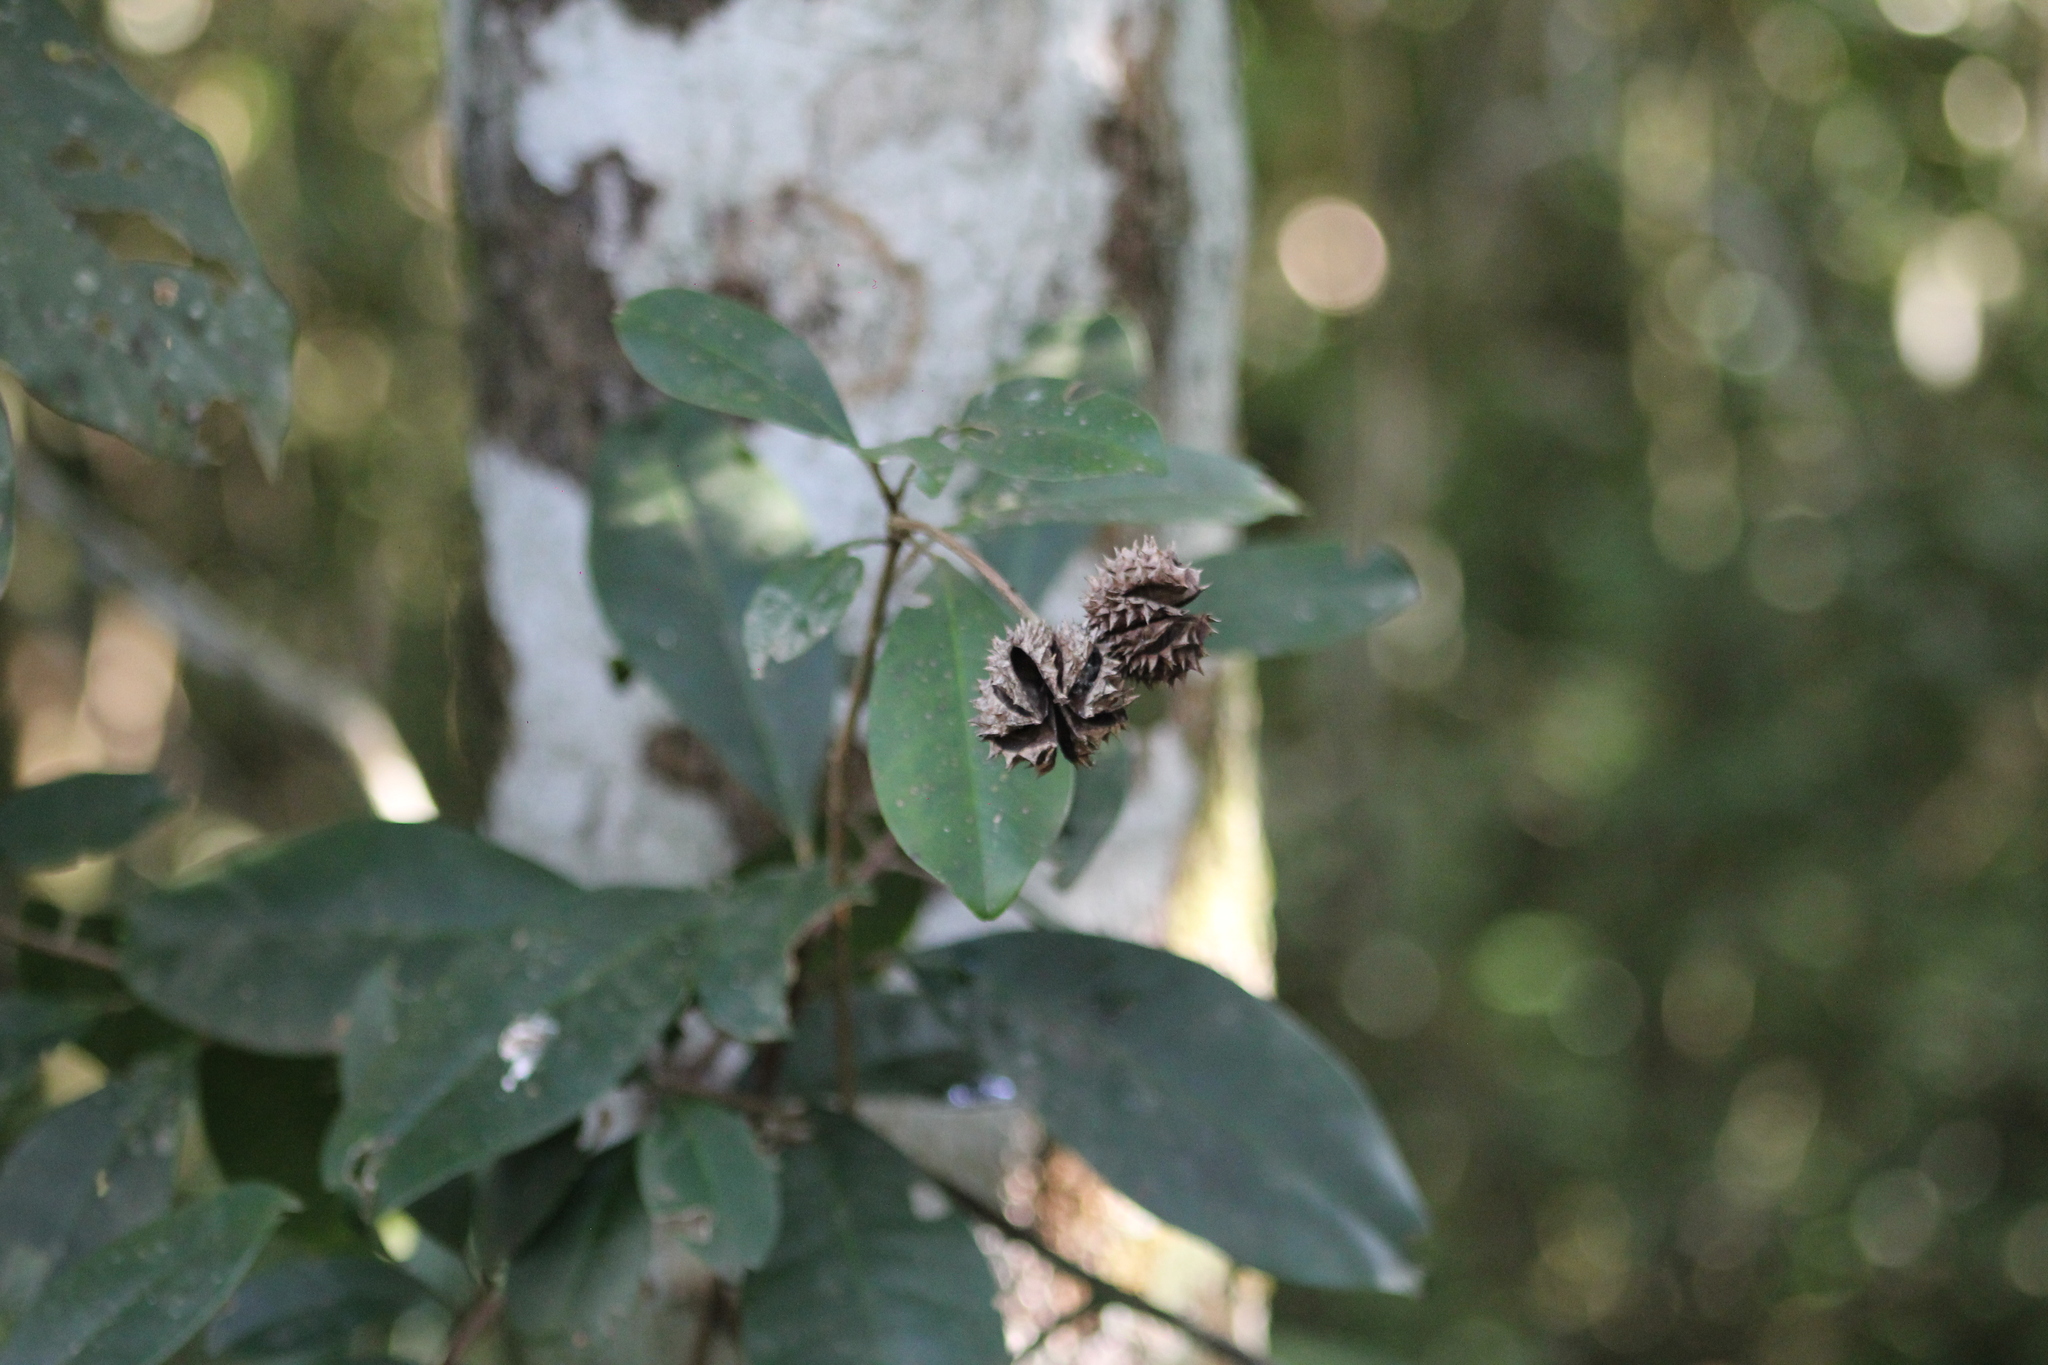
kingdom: Plantae
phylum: Tracheophyta
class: Magnoliopsida
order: Sapindales
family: Rutaceae
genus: Esenbeckia
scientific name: Esenbeckia grandiflora
